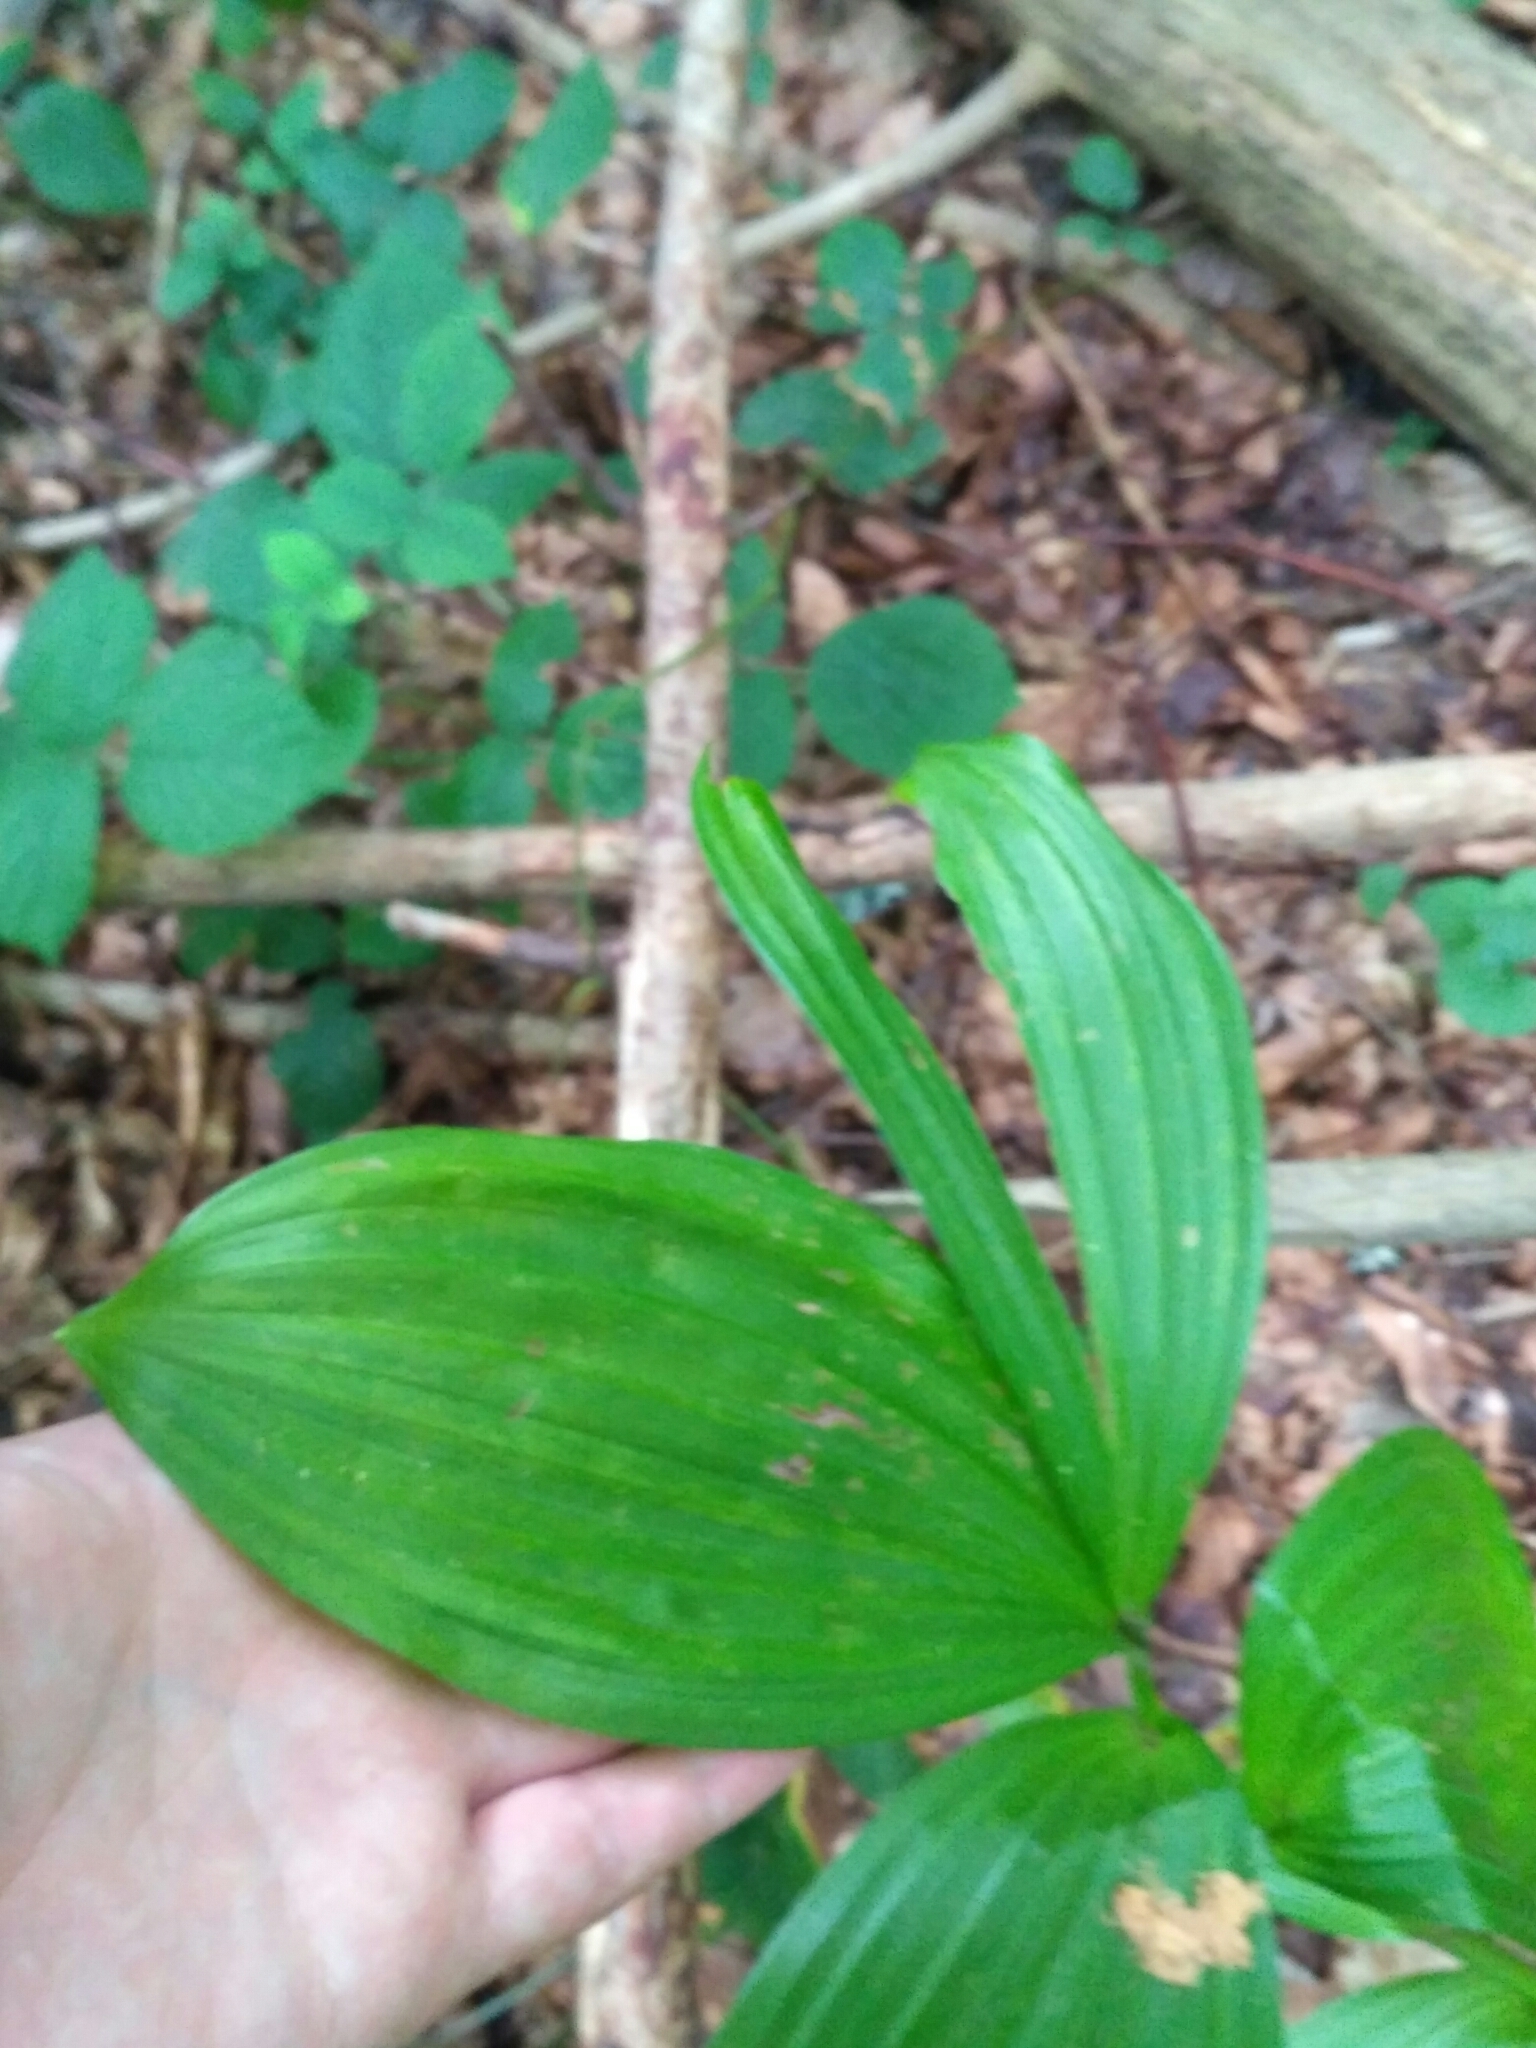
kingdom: Plantae
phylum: Tracheophyta
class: Liliopsida
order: Liliales
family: Melanthiaceae
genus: Veratrum
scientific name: Veratrum lobelianum
